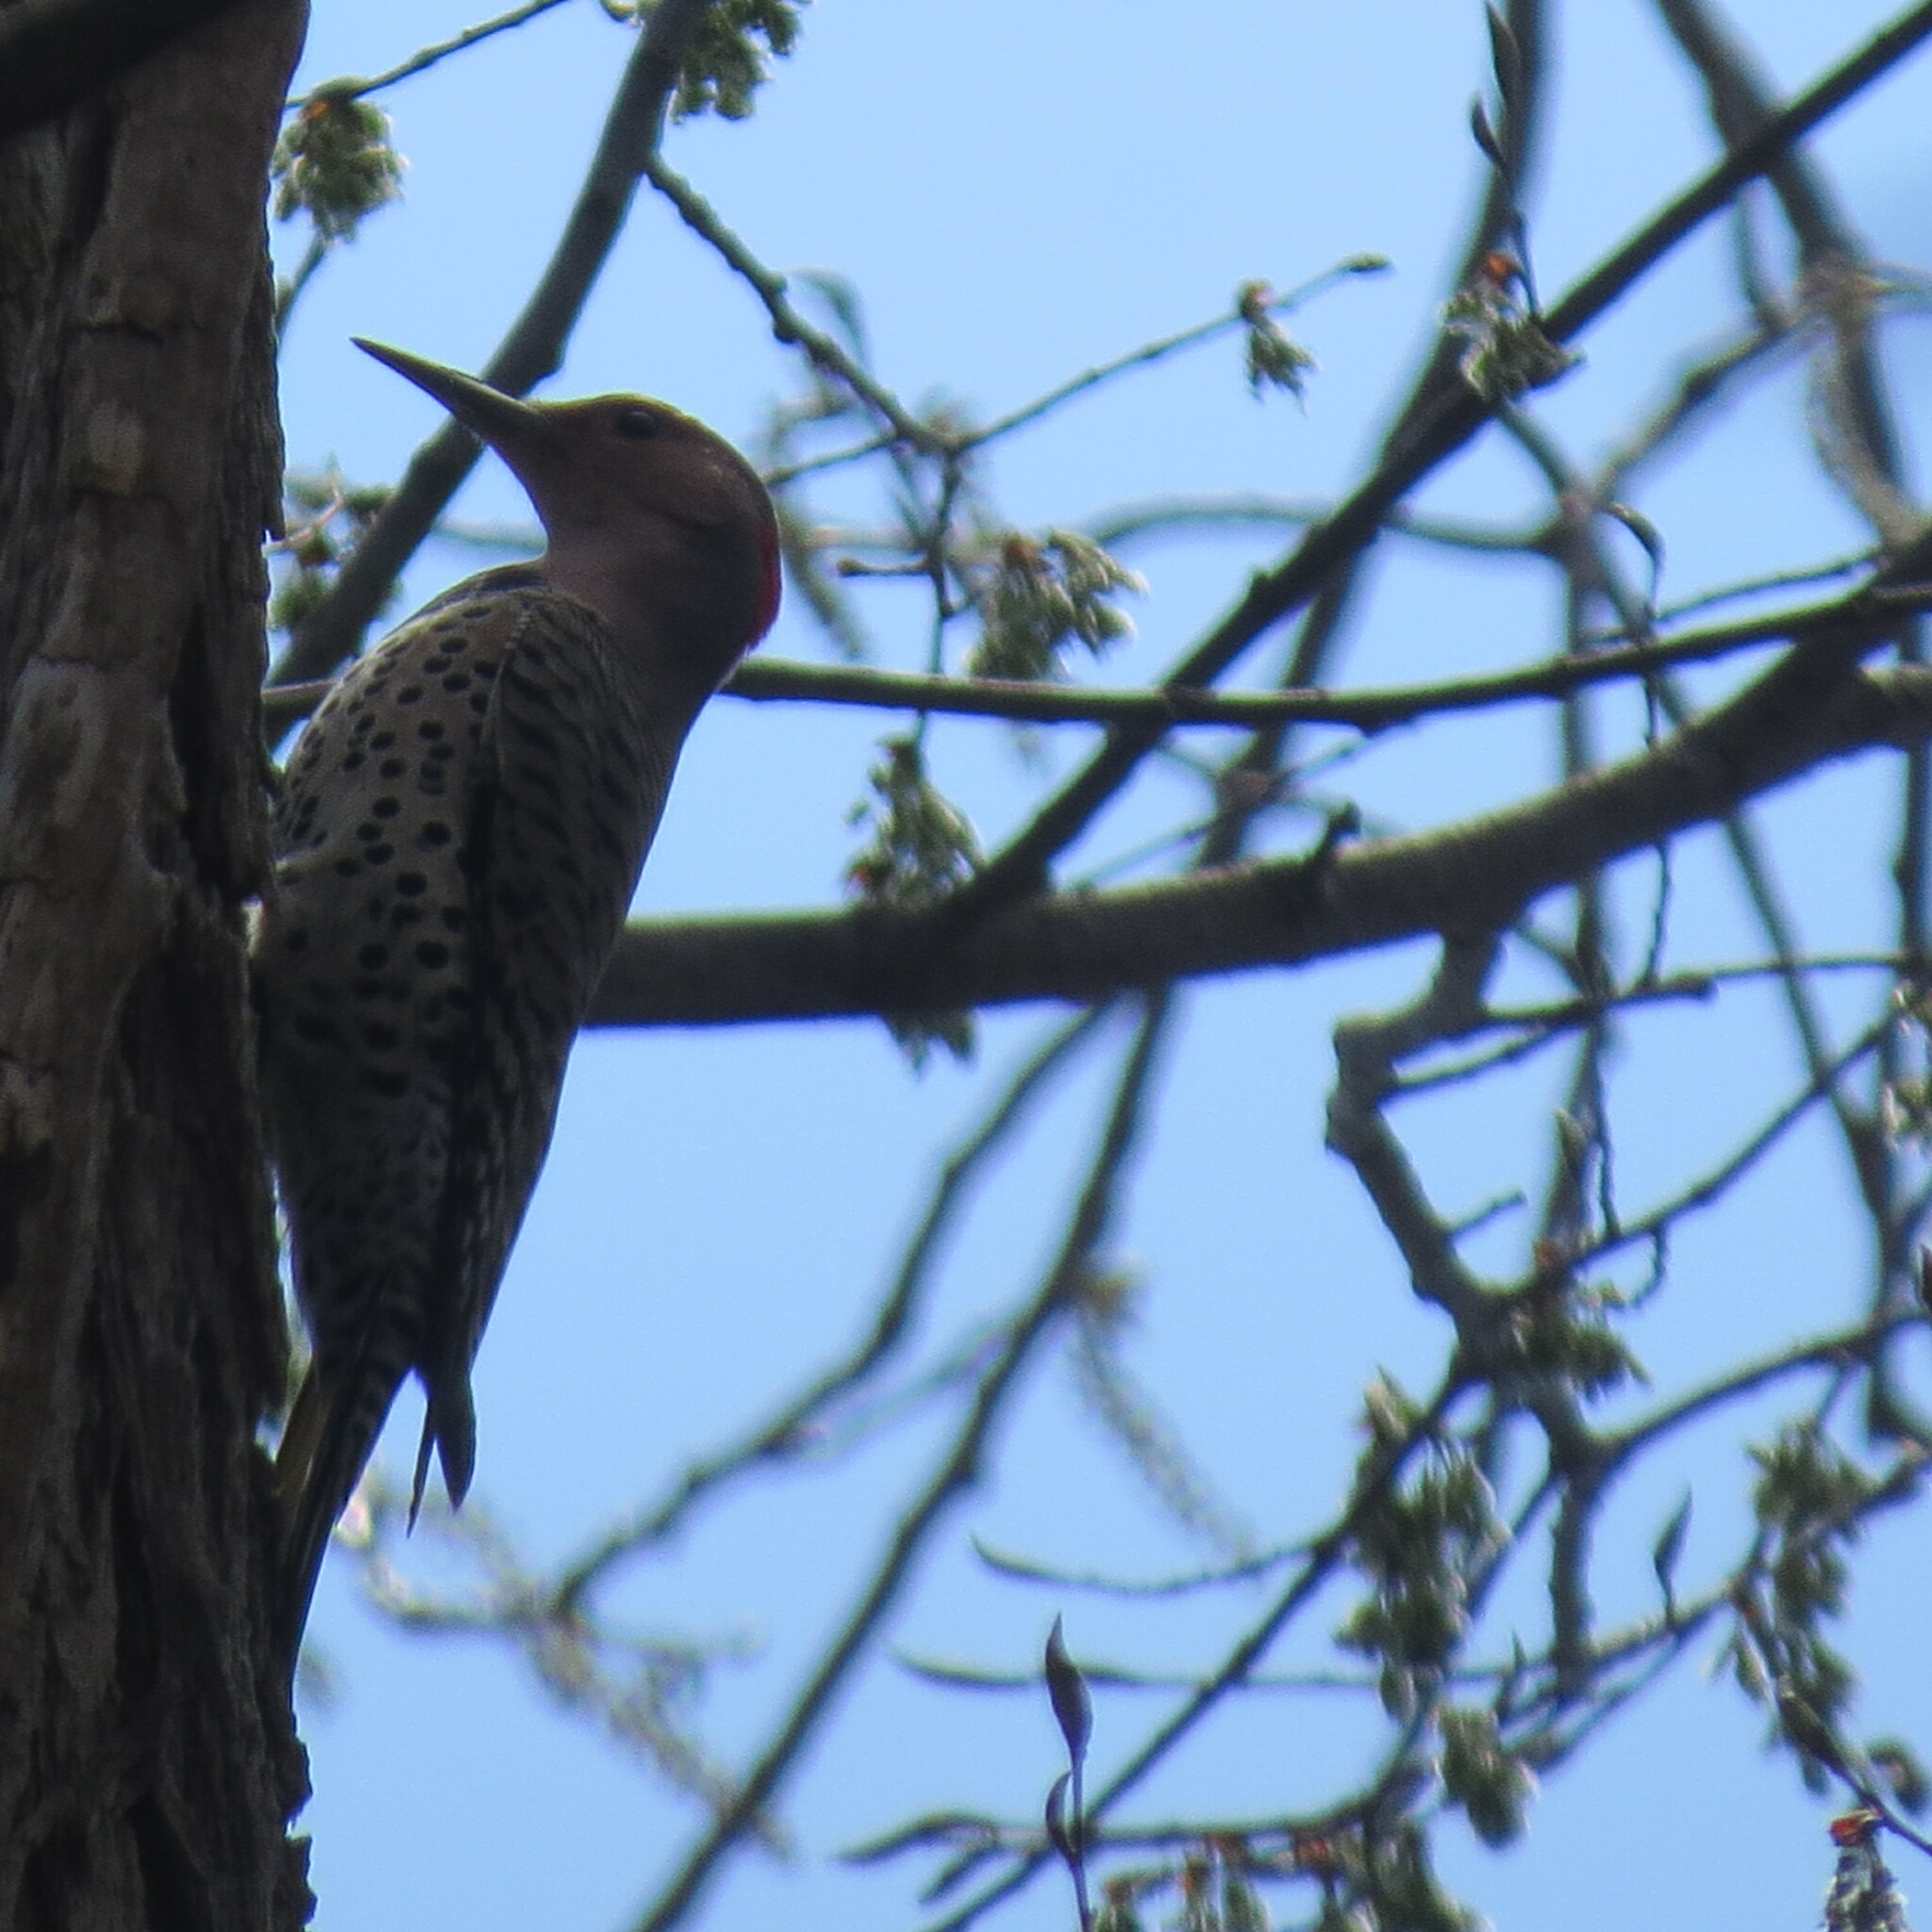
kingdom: Animalia
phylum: Chordata
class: Aves
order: Piciformes
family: Picidae
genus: Colaptes
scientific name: Colaptes auratus
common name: Northern flicker
